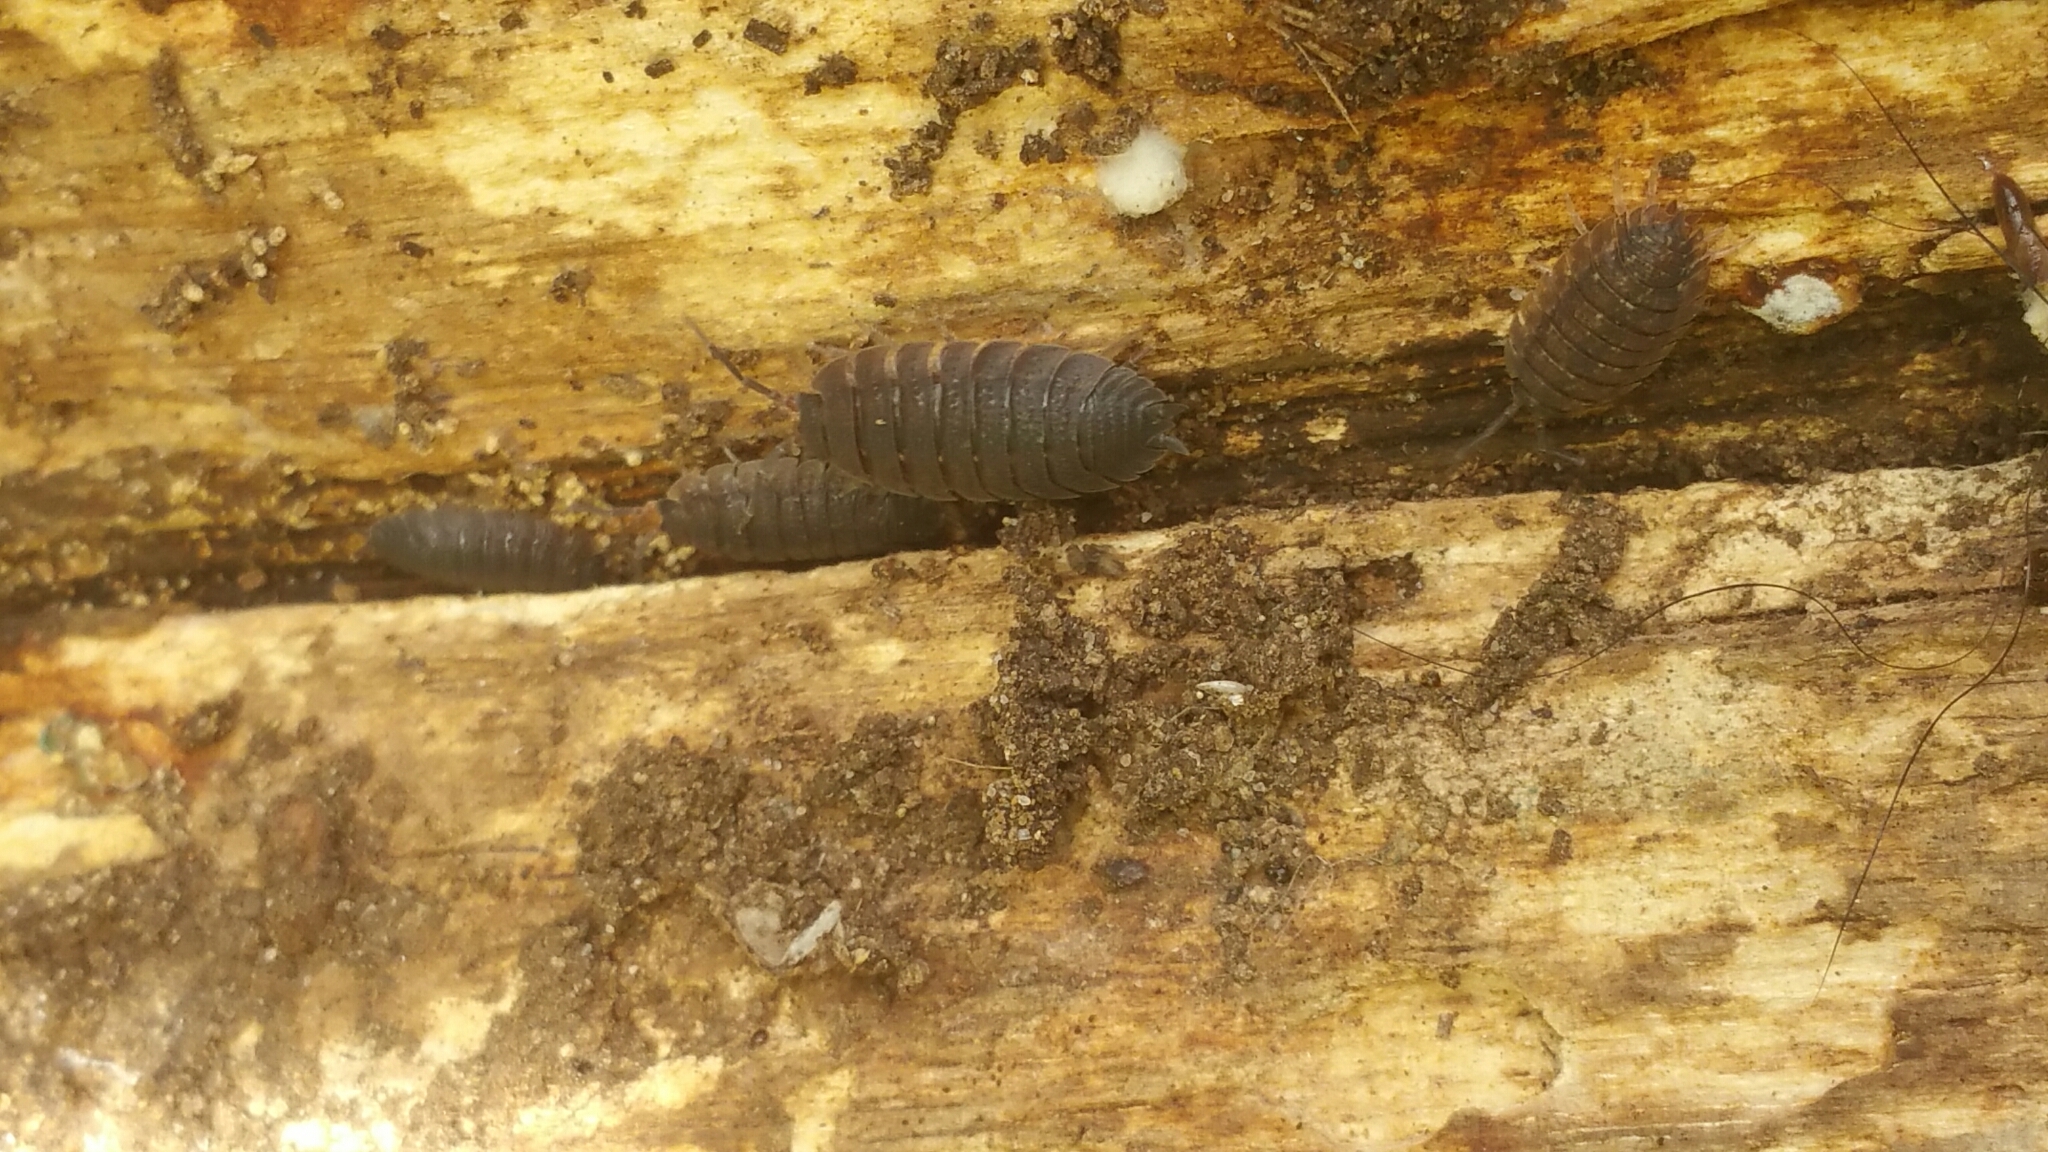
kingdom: Animalia
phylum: Arthropoda
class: Malacostraca
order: Isopoda
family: Porcellionidae
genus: Porcellio
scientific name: Porcellio scaber
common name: Common rough woodlouse
